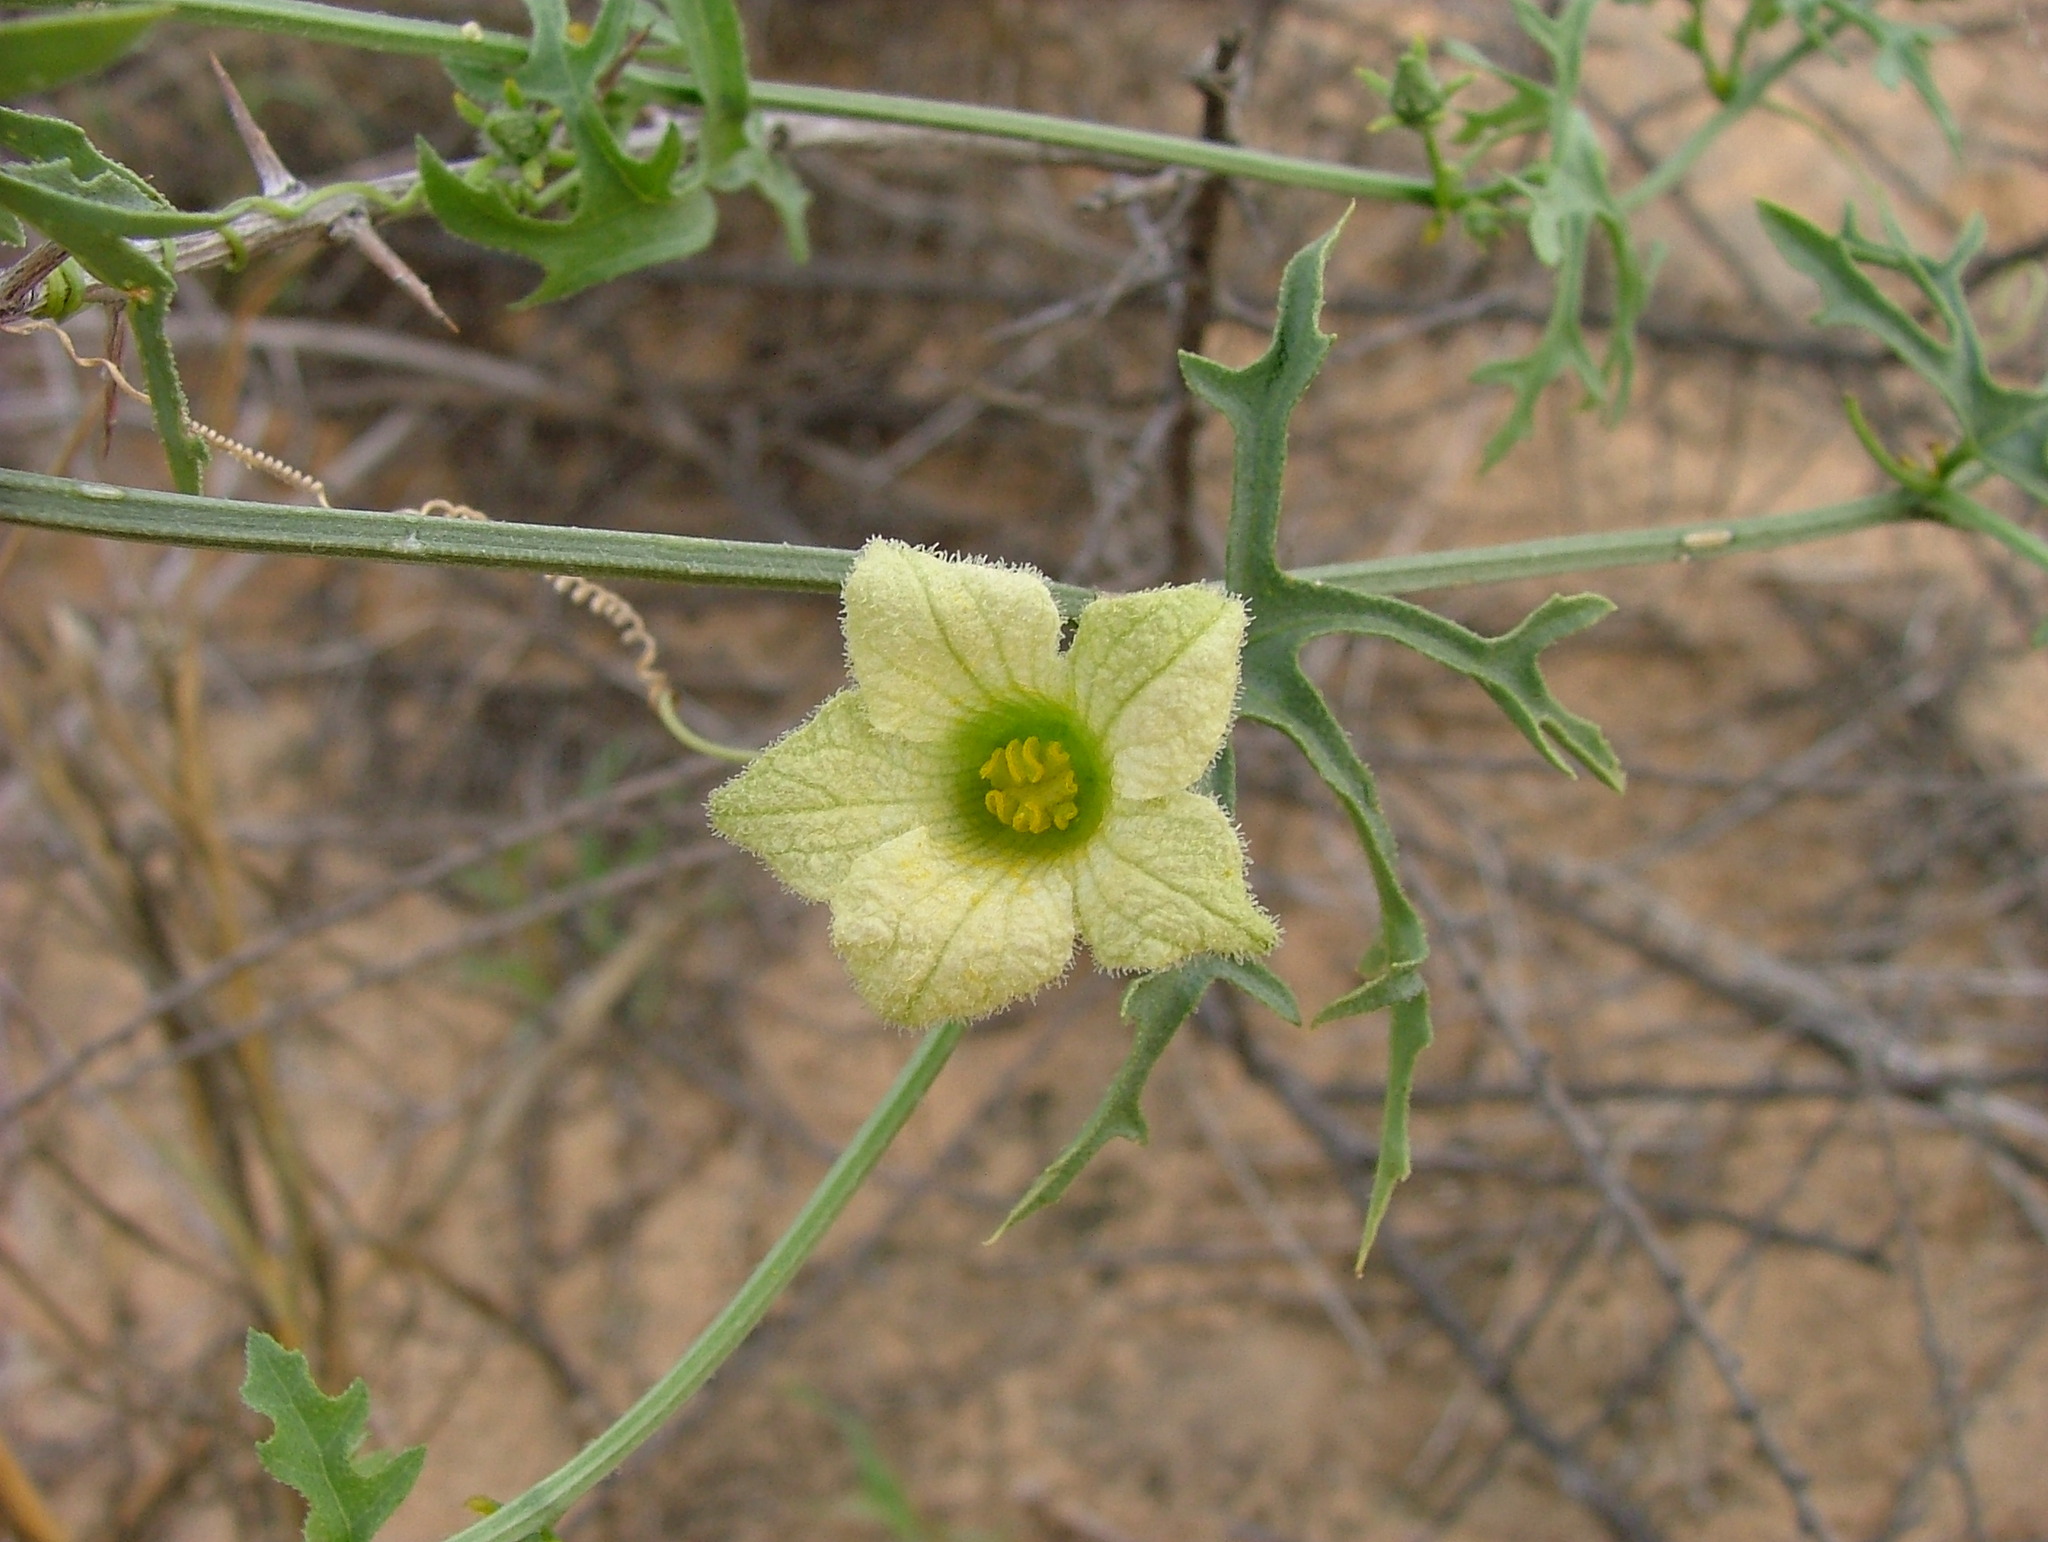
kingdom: Plantae
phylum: Tracheophyta
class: Magnoliopsida
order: Cucurbitales
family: Cucurbitaceae
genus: Coccinia
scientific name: Coccinia rehmannii
